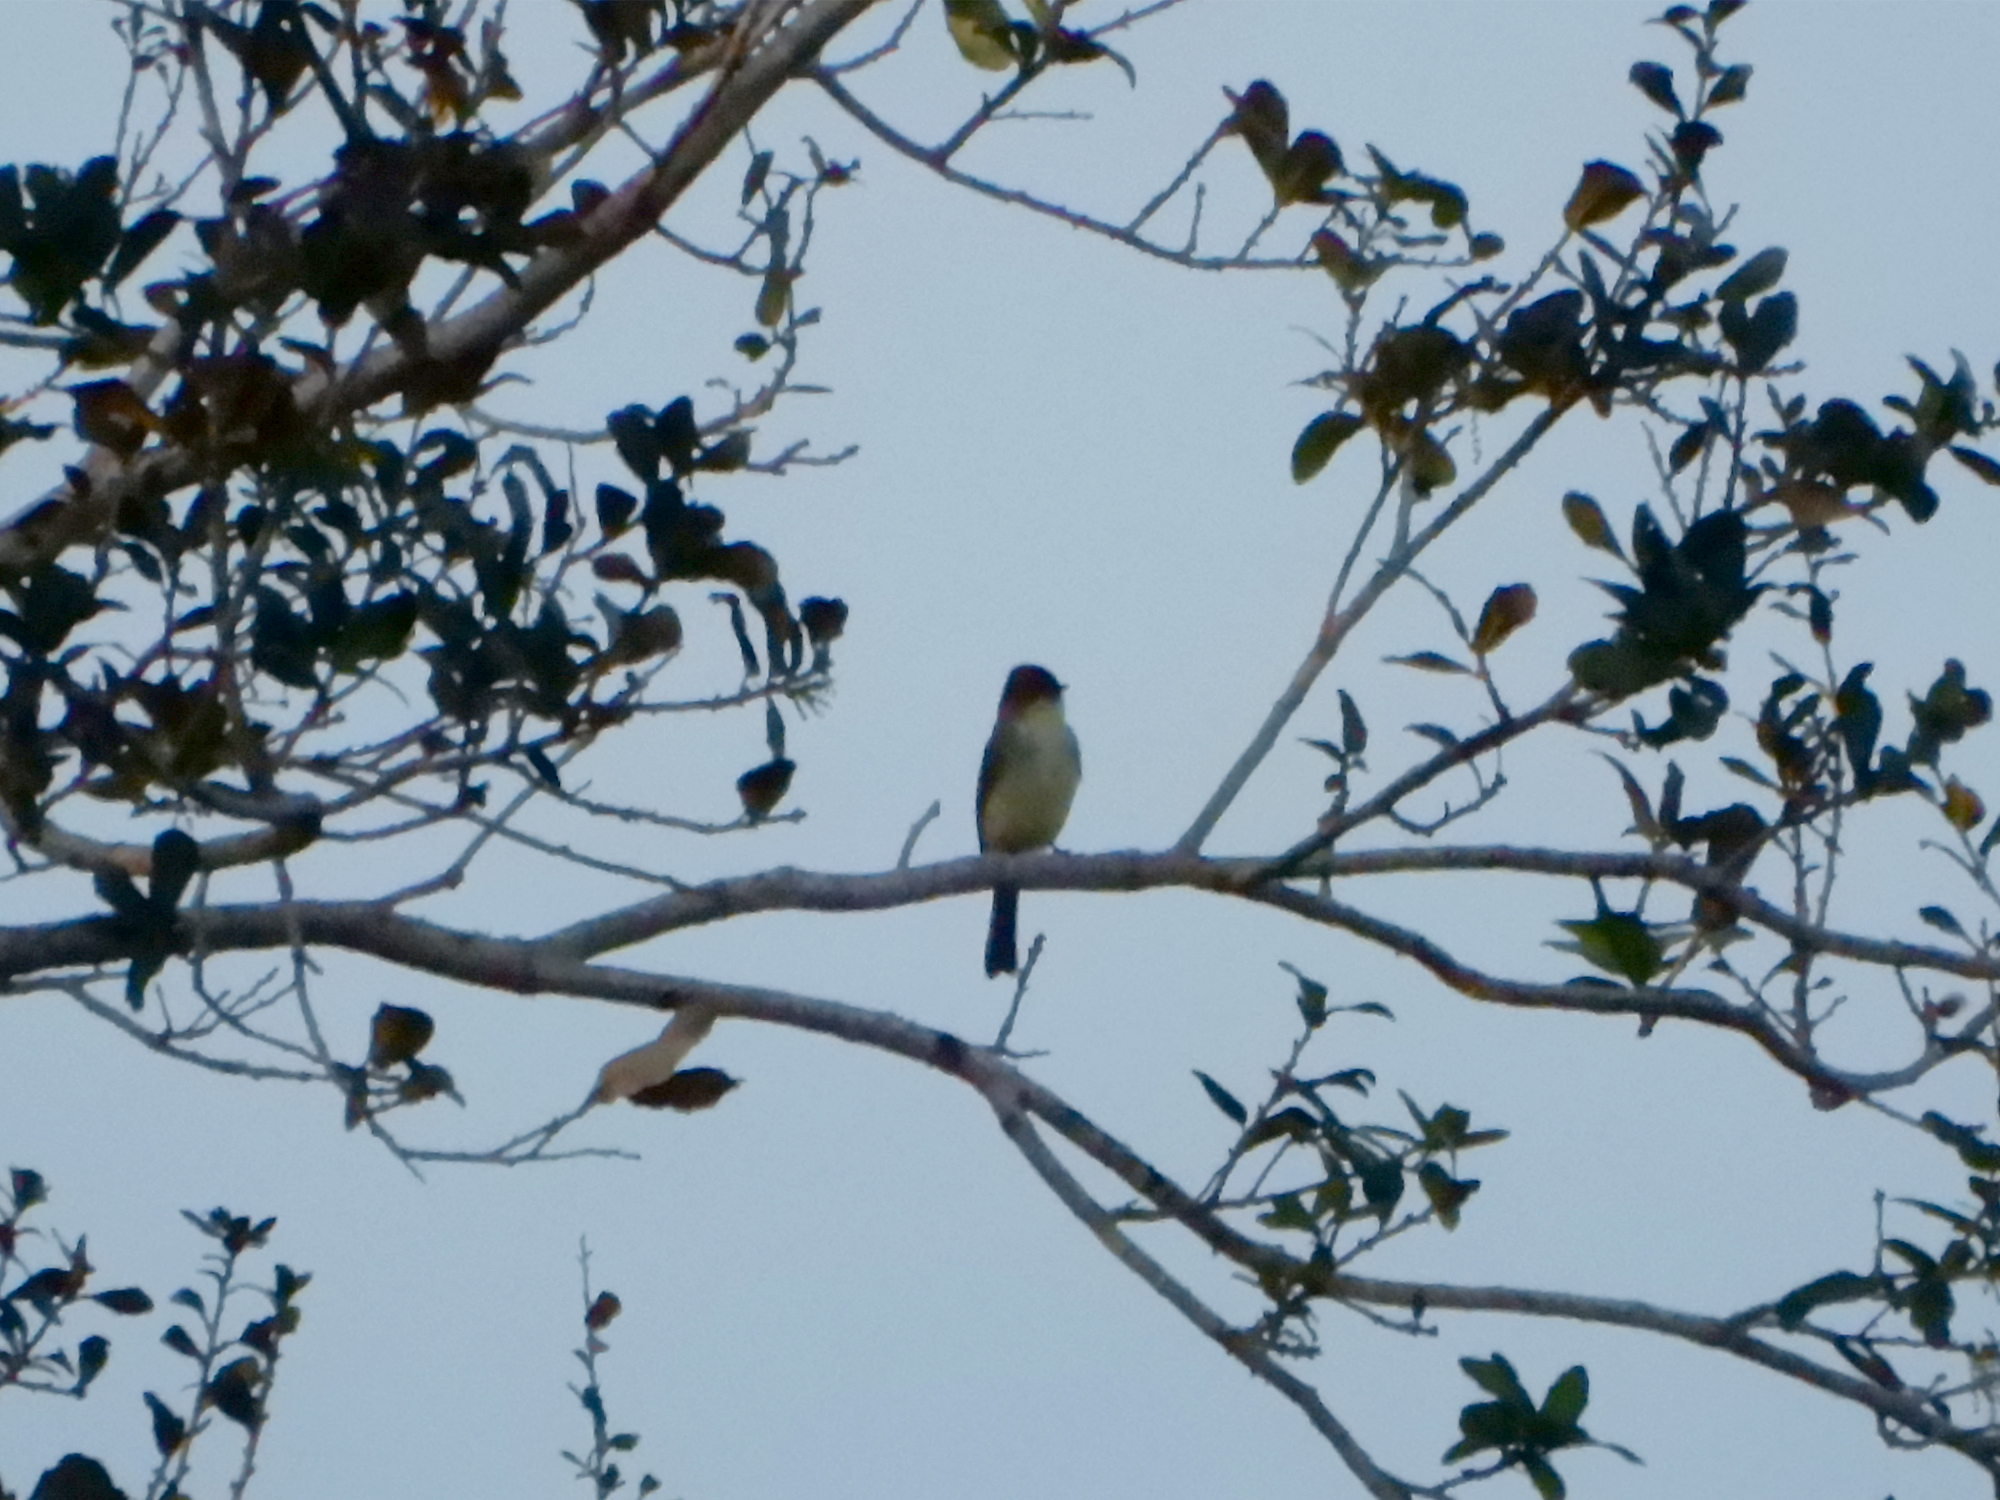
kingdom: Animalia
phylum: Chordata
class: Aves
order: Passeriformes
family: Tyrannidae
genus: Sayornis
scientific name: Sayornis phoebe
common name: Eastern phoebe
